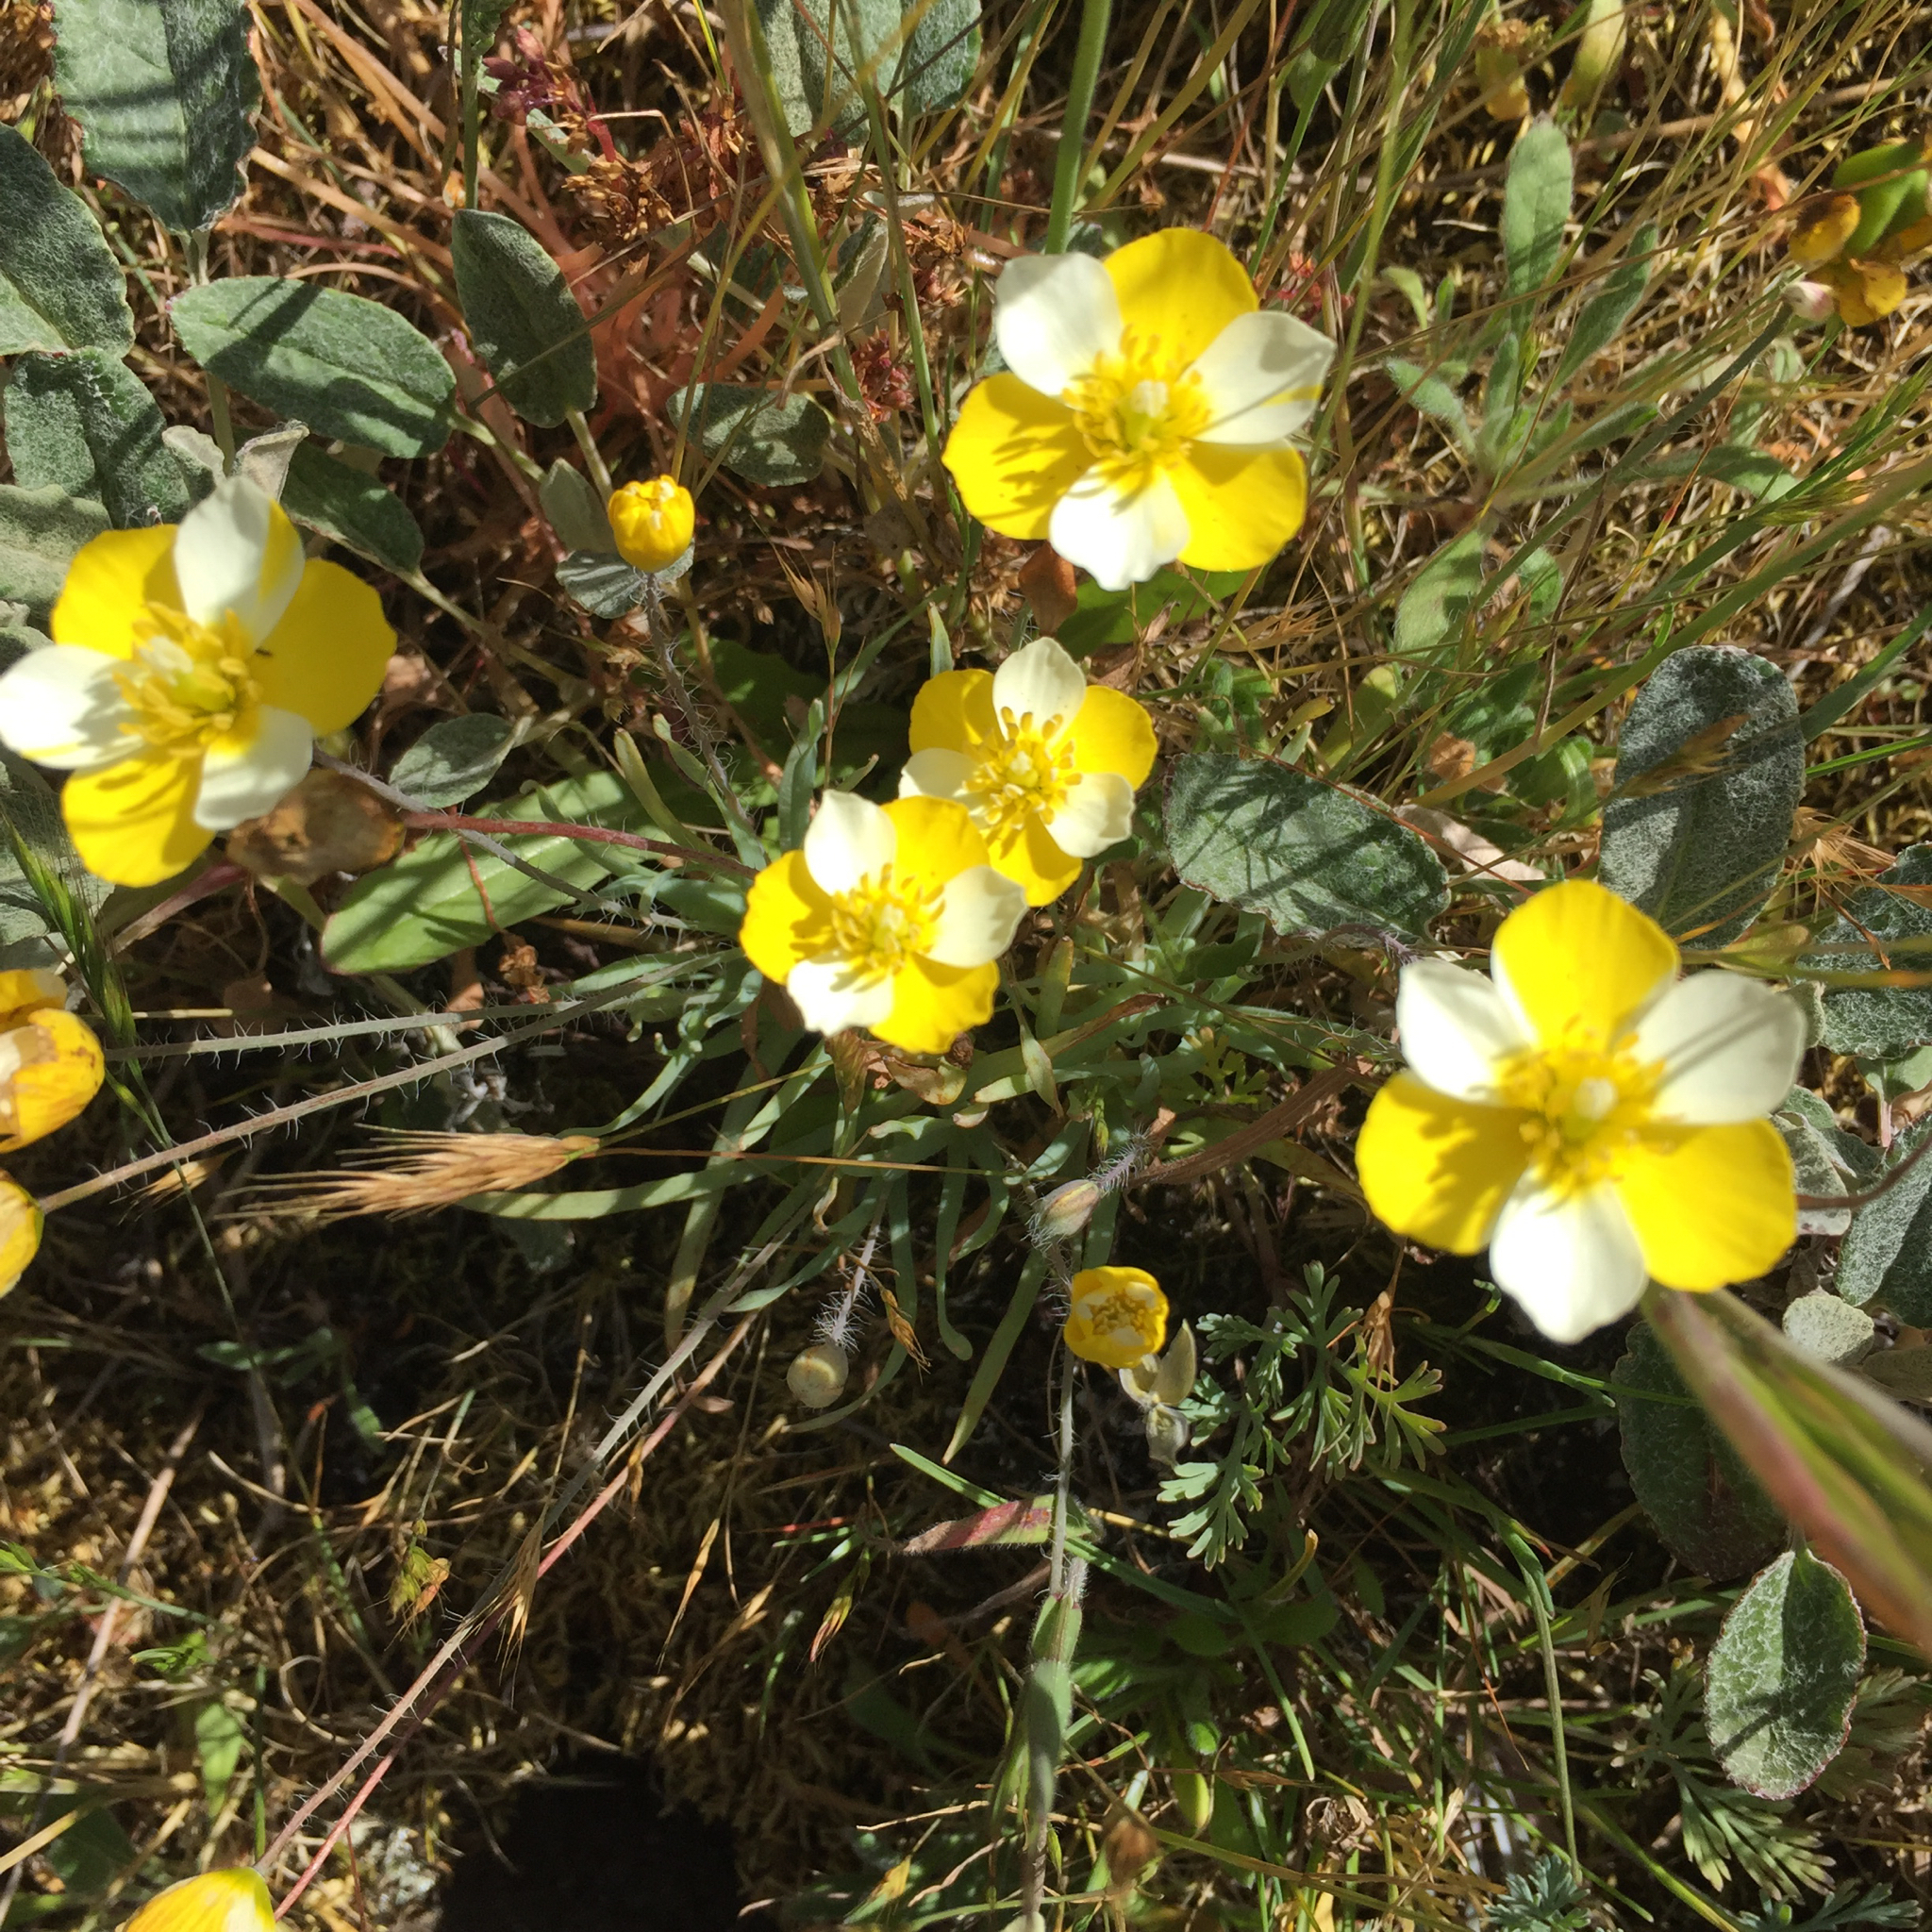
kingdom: Plantae
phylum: Tracheophyta
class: Magnoliopsida
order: Ranunculales
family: Papaveraceae
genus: Platystigma
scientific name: Platystigma lineare
